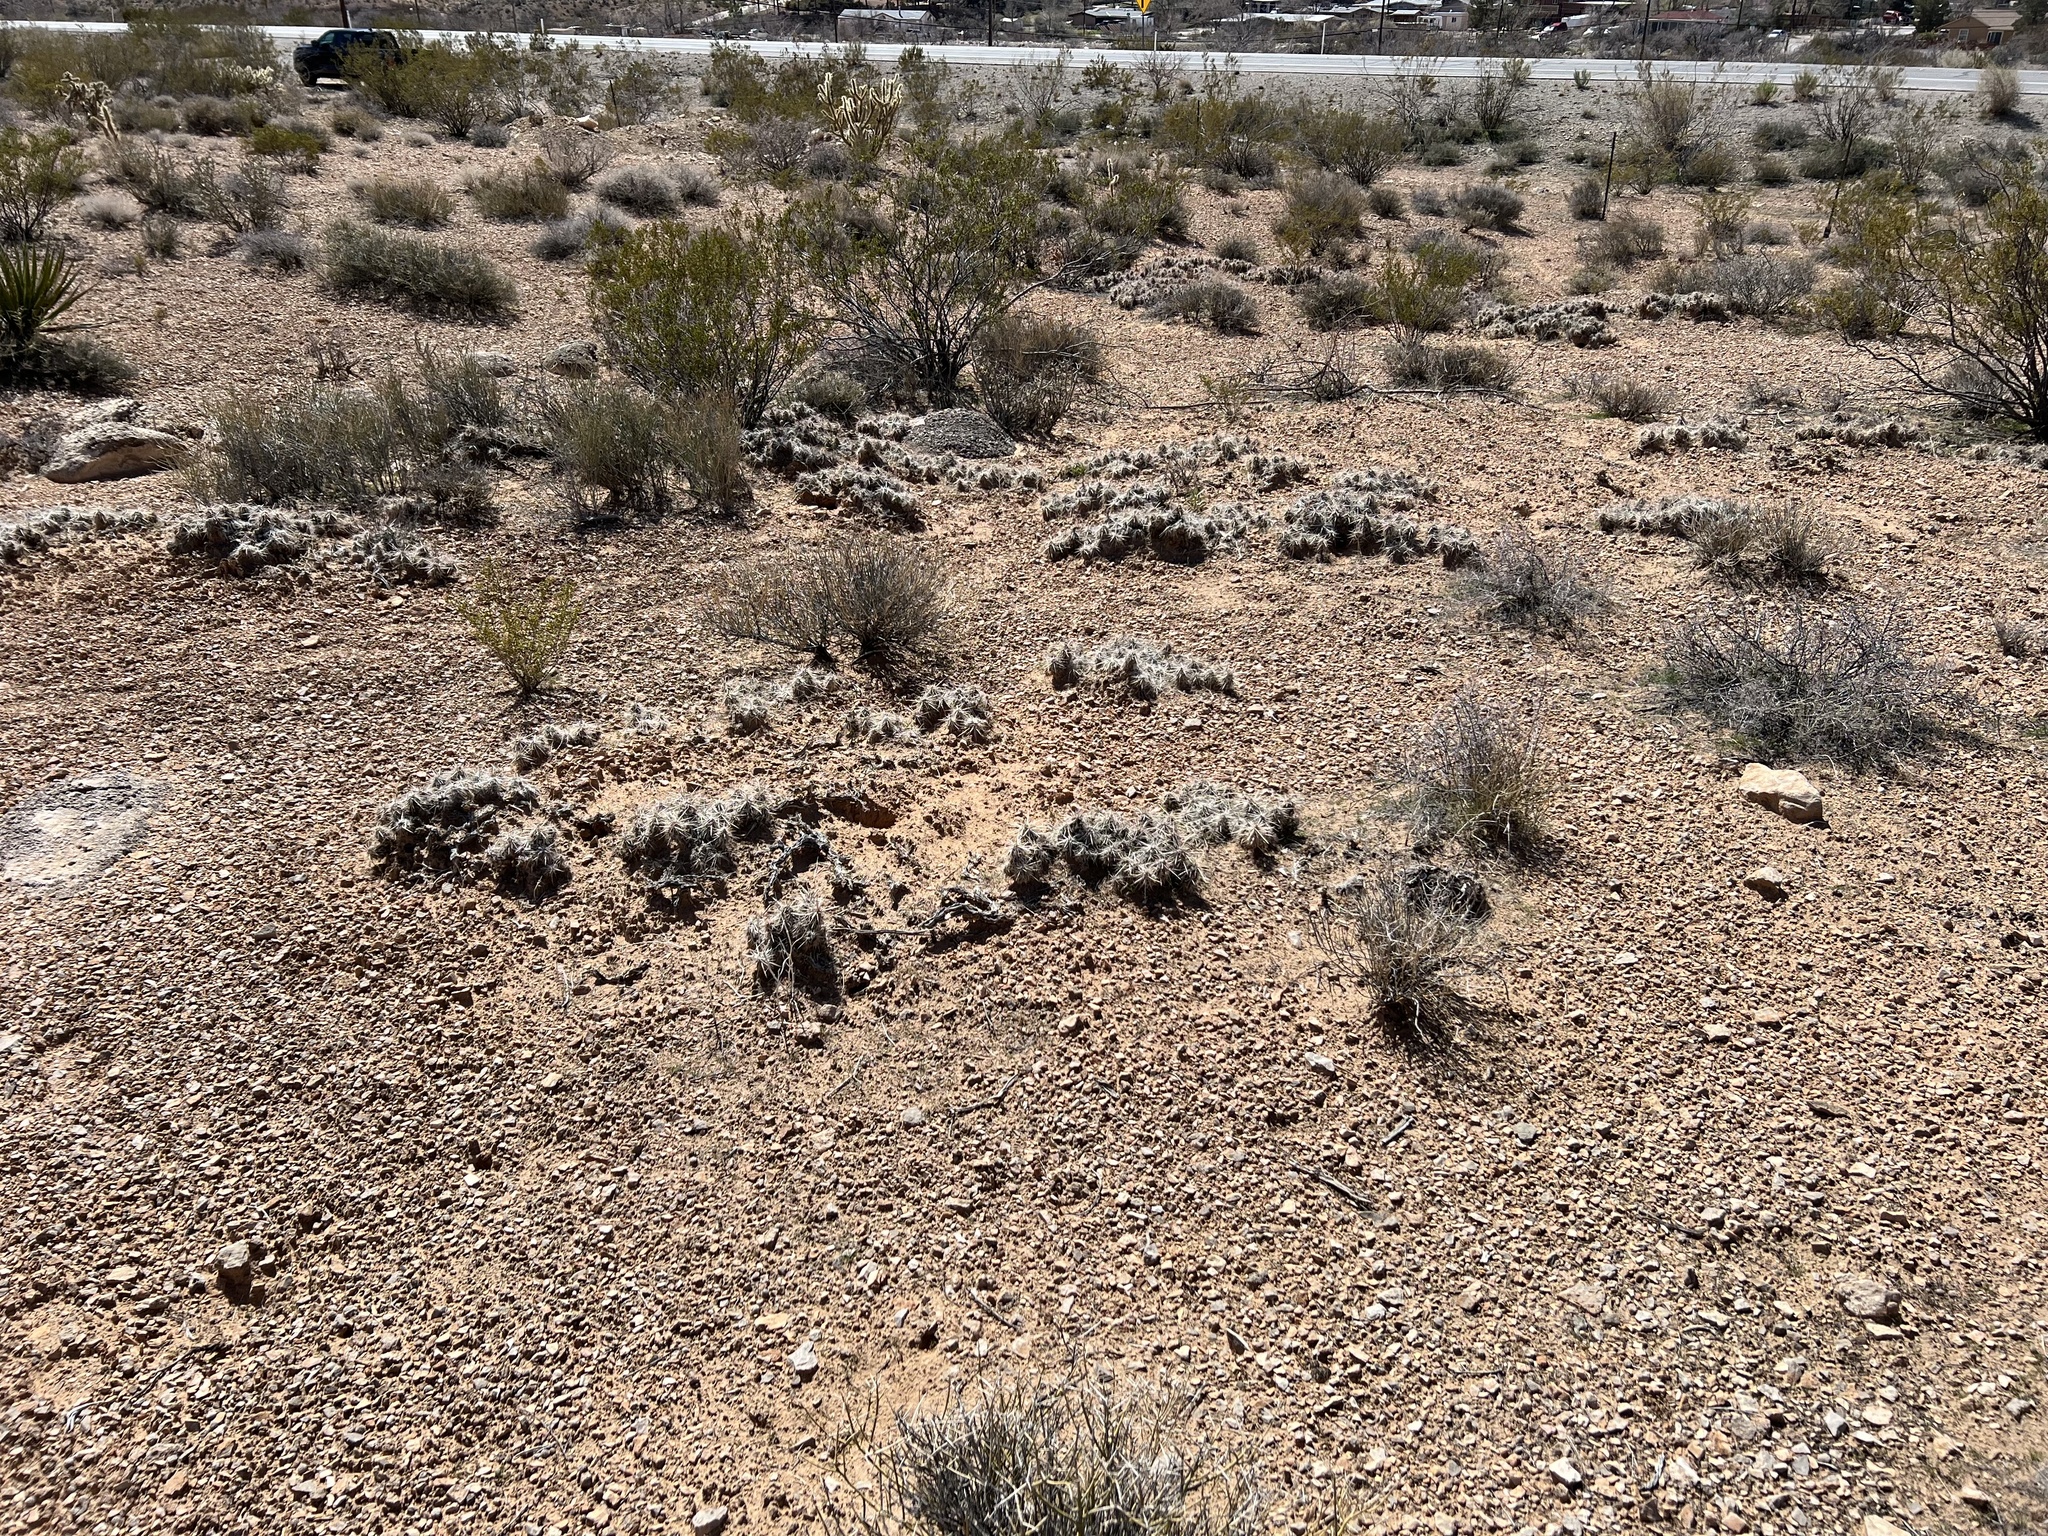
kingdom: Plantae
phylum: Tracheophyta
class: Magnoliopsida
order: Caryophyllales
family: Cactaceae
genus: Grusonia
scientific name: Grusonia parishiorum
